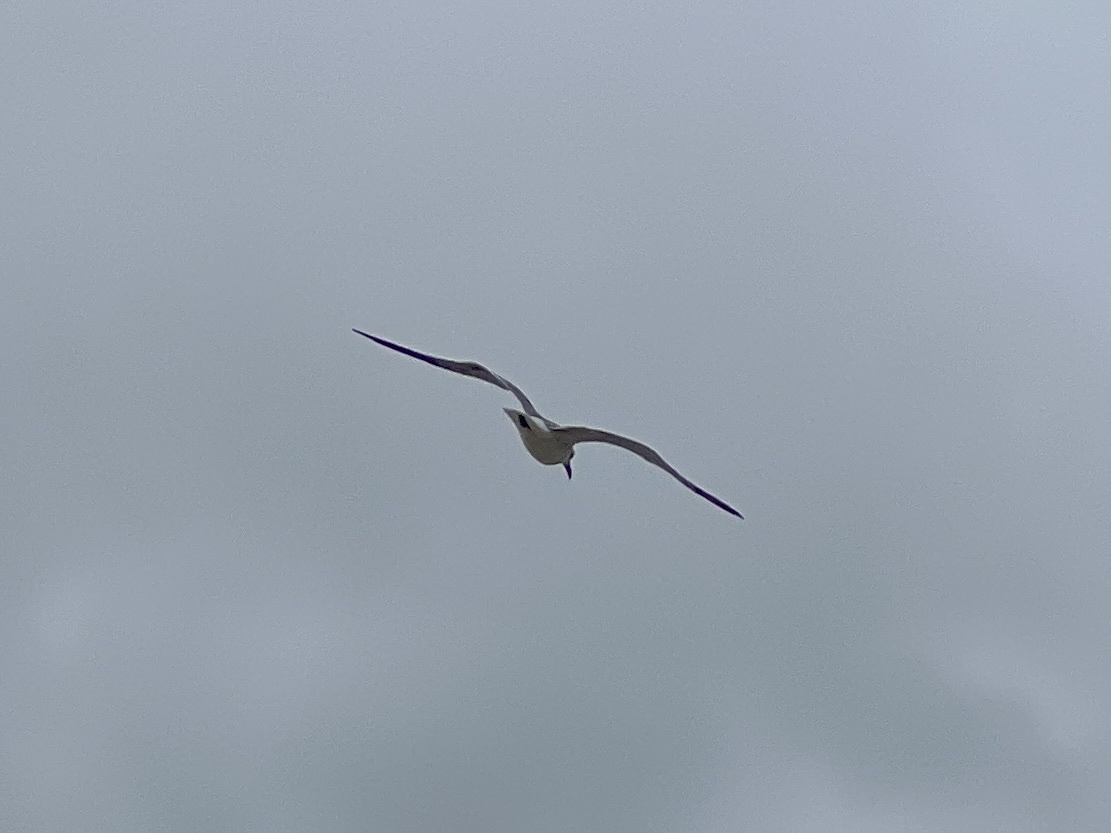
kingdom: Animalia
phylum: Chordata
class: Aves
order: Charadriiformes
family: Laridae
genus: Leucophaeus
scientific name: Leucophaeus atricilla
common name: Laughing gull
